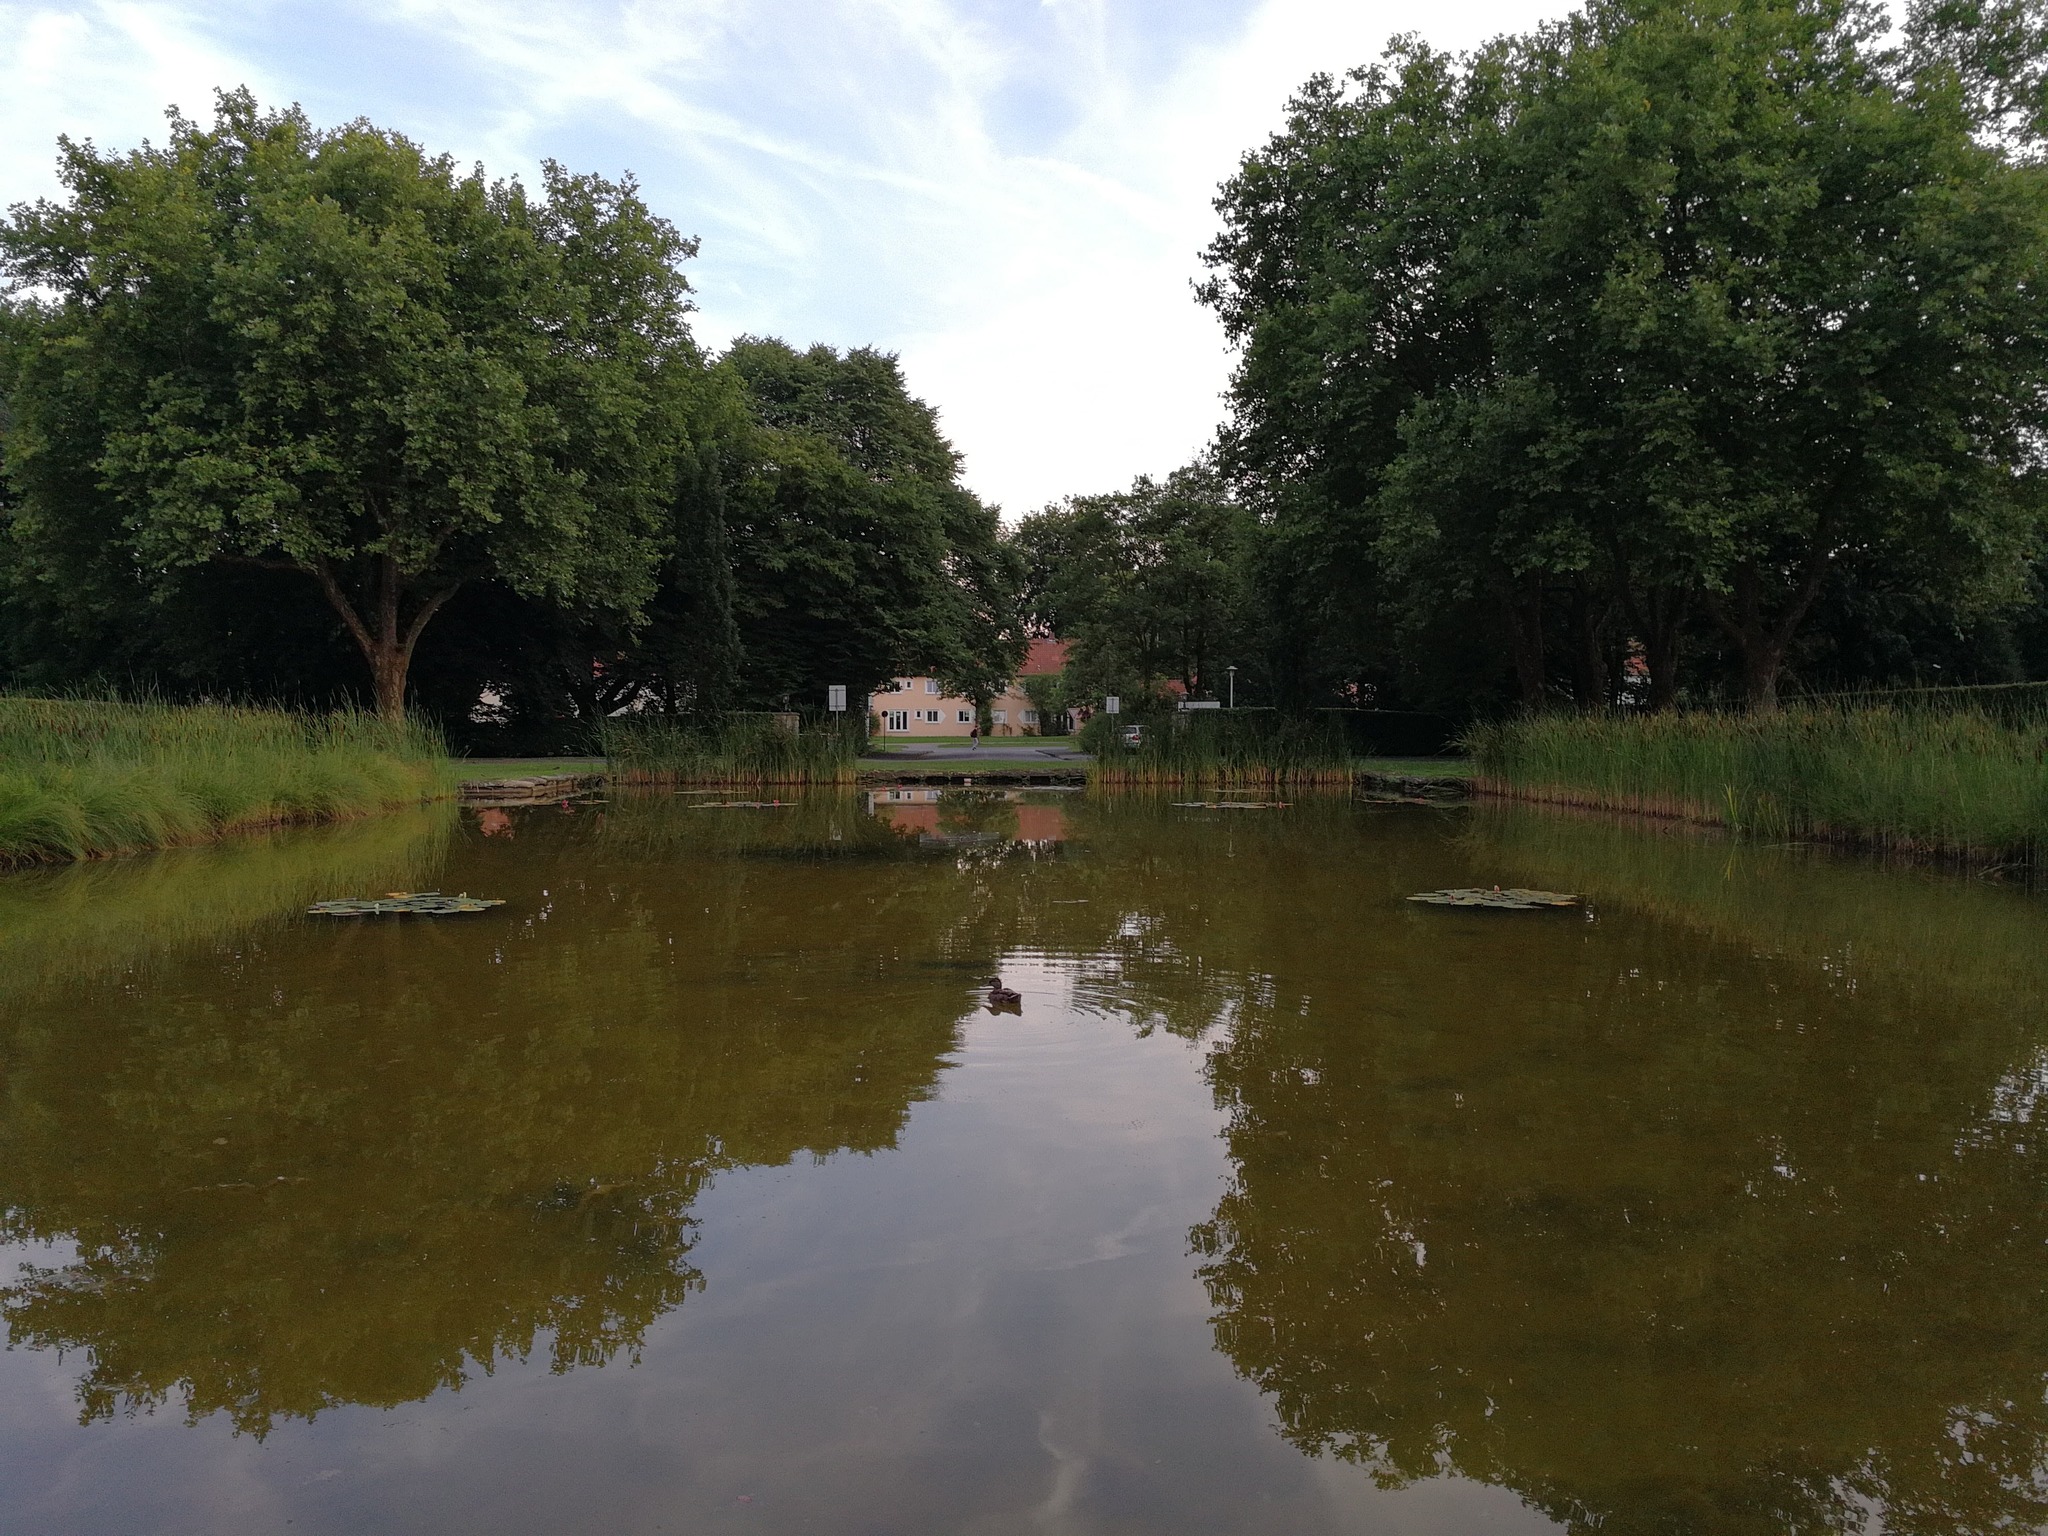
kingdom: Animalia
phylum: Chordata
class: Aves
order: Anseriformes
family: Anatidae
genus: Anas
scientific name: Anas platyrhynchos
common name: Mallard
